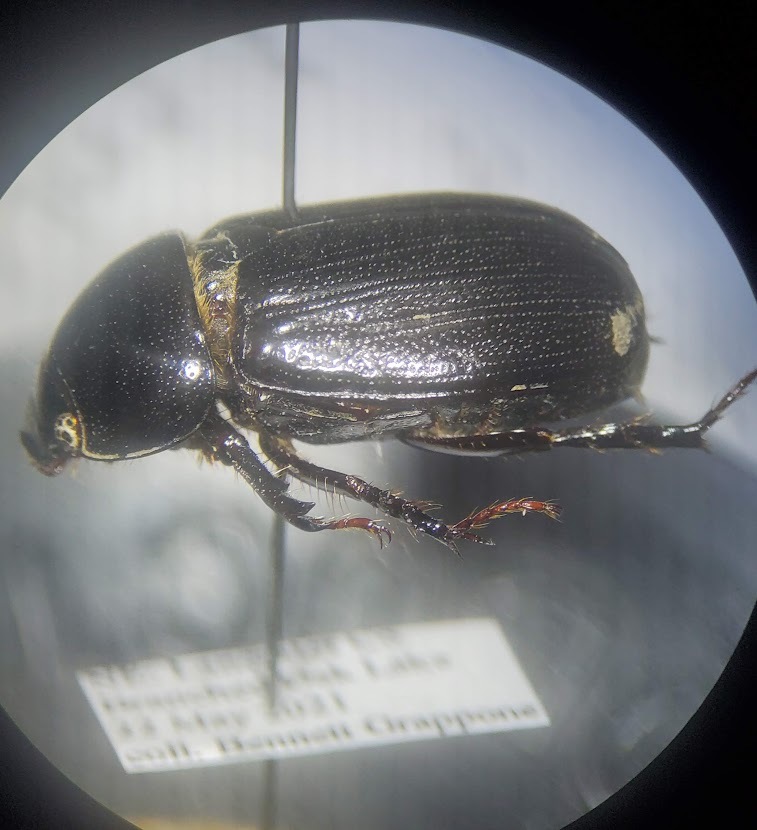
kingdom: Animalia
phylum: Arthropoda
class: Insecta
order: Coleoptera
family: Scarabaeidae
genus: Dyscinetus
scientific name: Dyscinetus picipes
